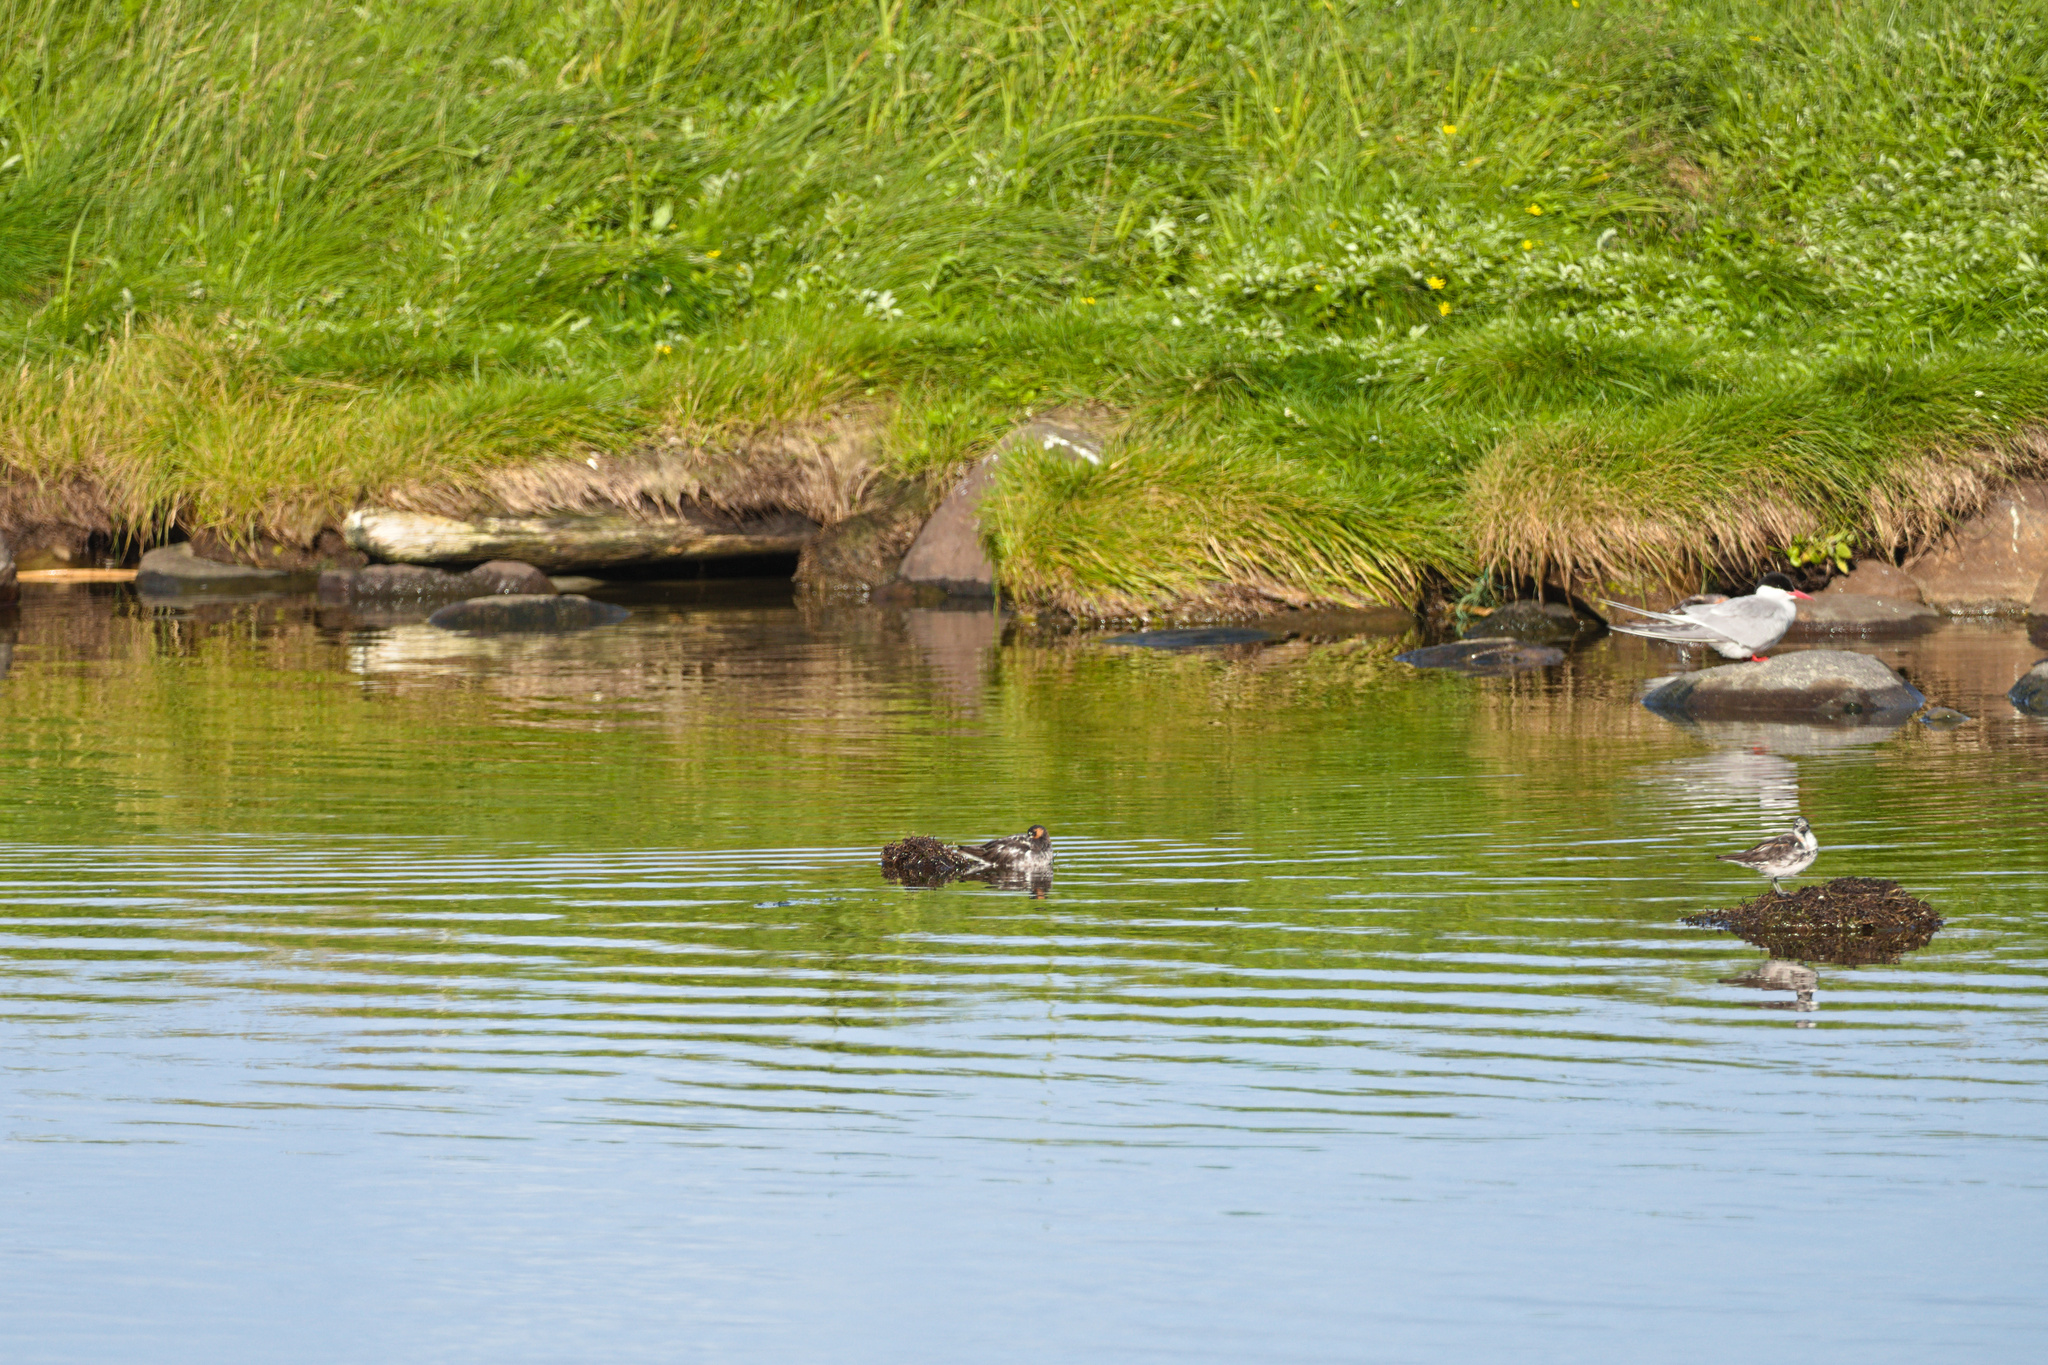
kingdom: Animalia
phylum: Chordata
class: Aves
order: Charadriiformes
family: Laridae
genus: Sterna
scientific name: Sterna paradisaea
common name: Arctic tern
